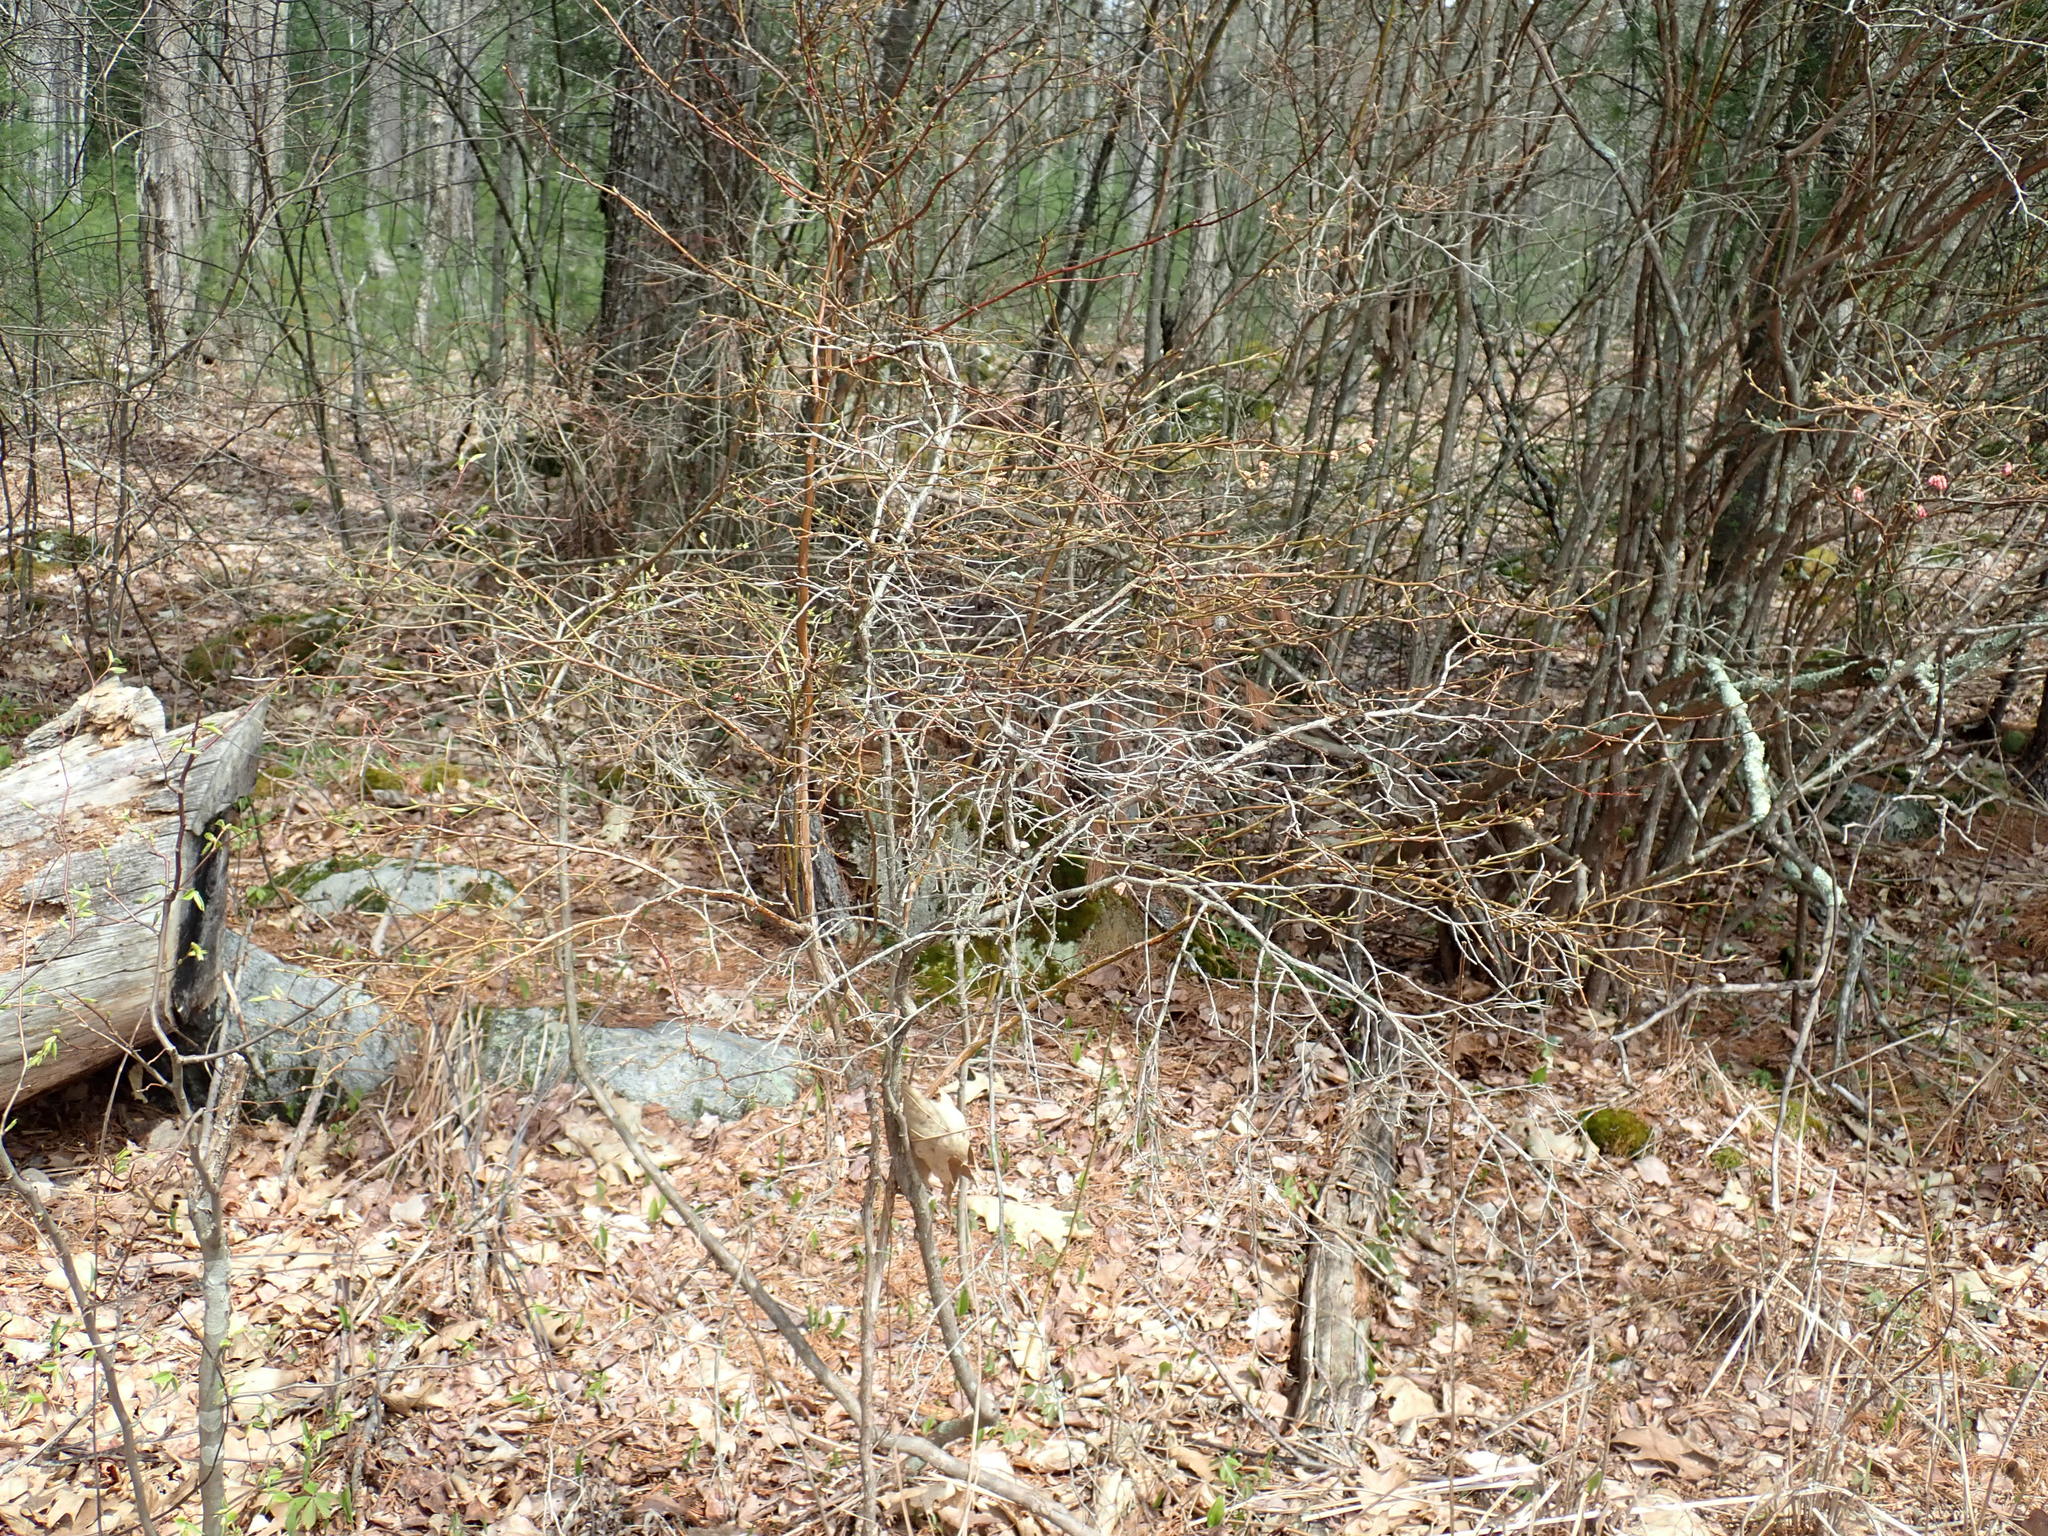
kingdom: Plantae
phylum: Tracheophyta
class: Magnoliopsida
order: Ericales
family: Ericaceae
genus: Vaccinium
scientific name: Vaccinium corymbosum
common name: Blueberry
